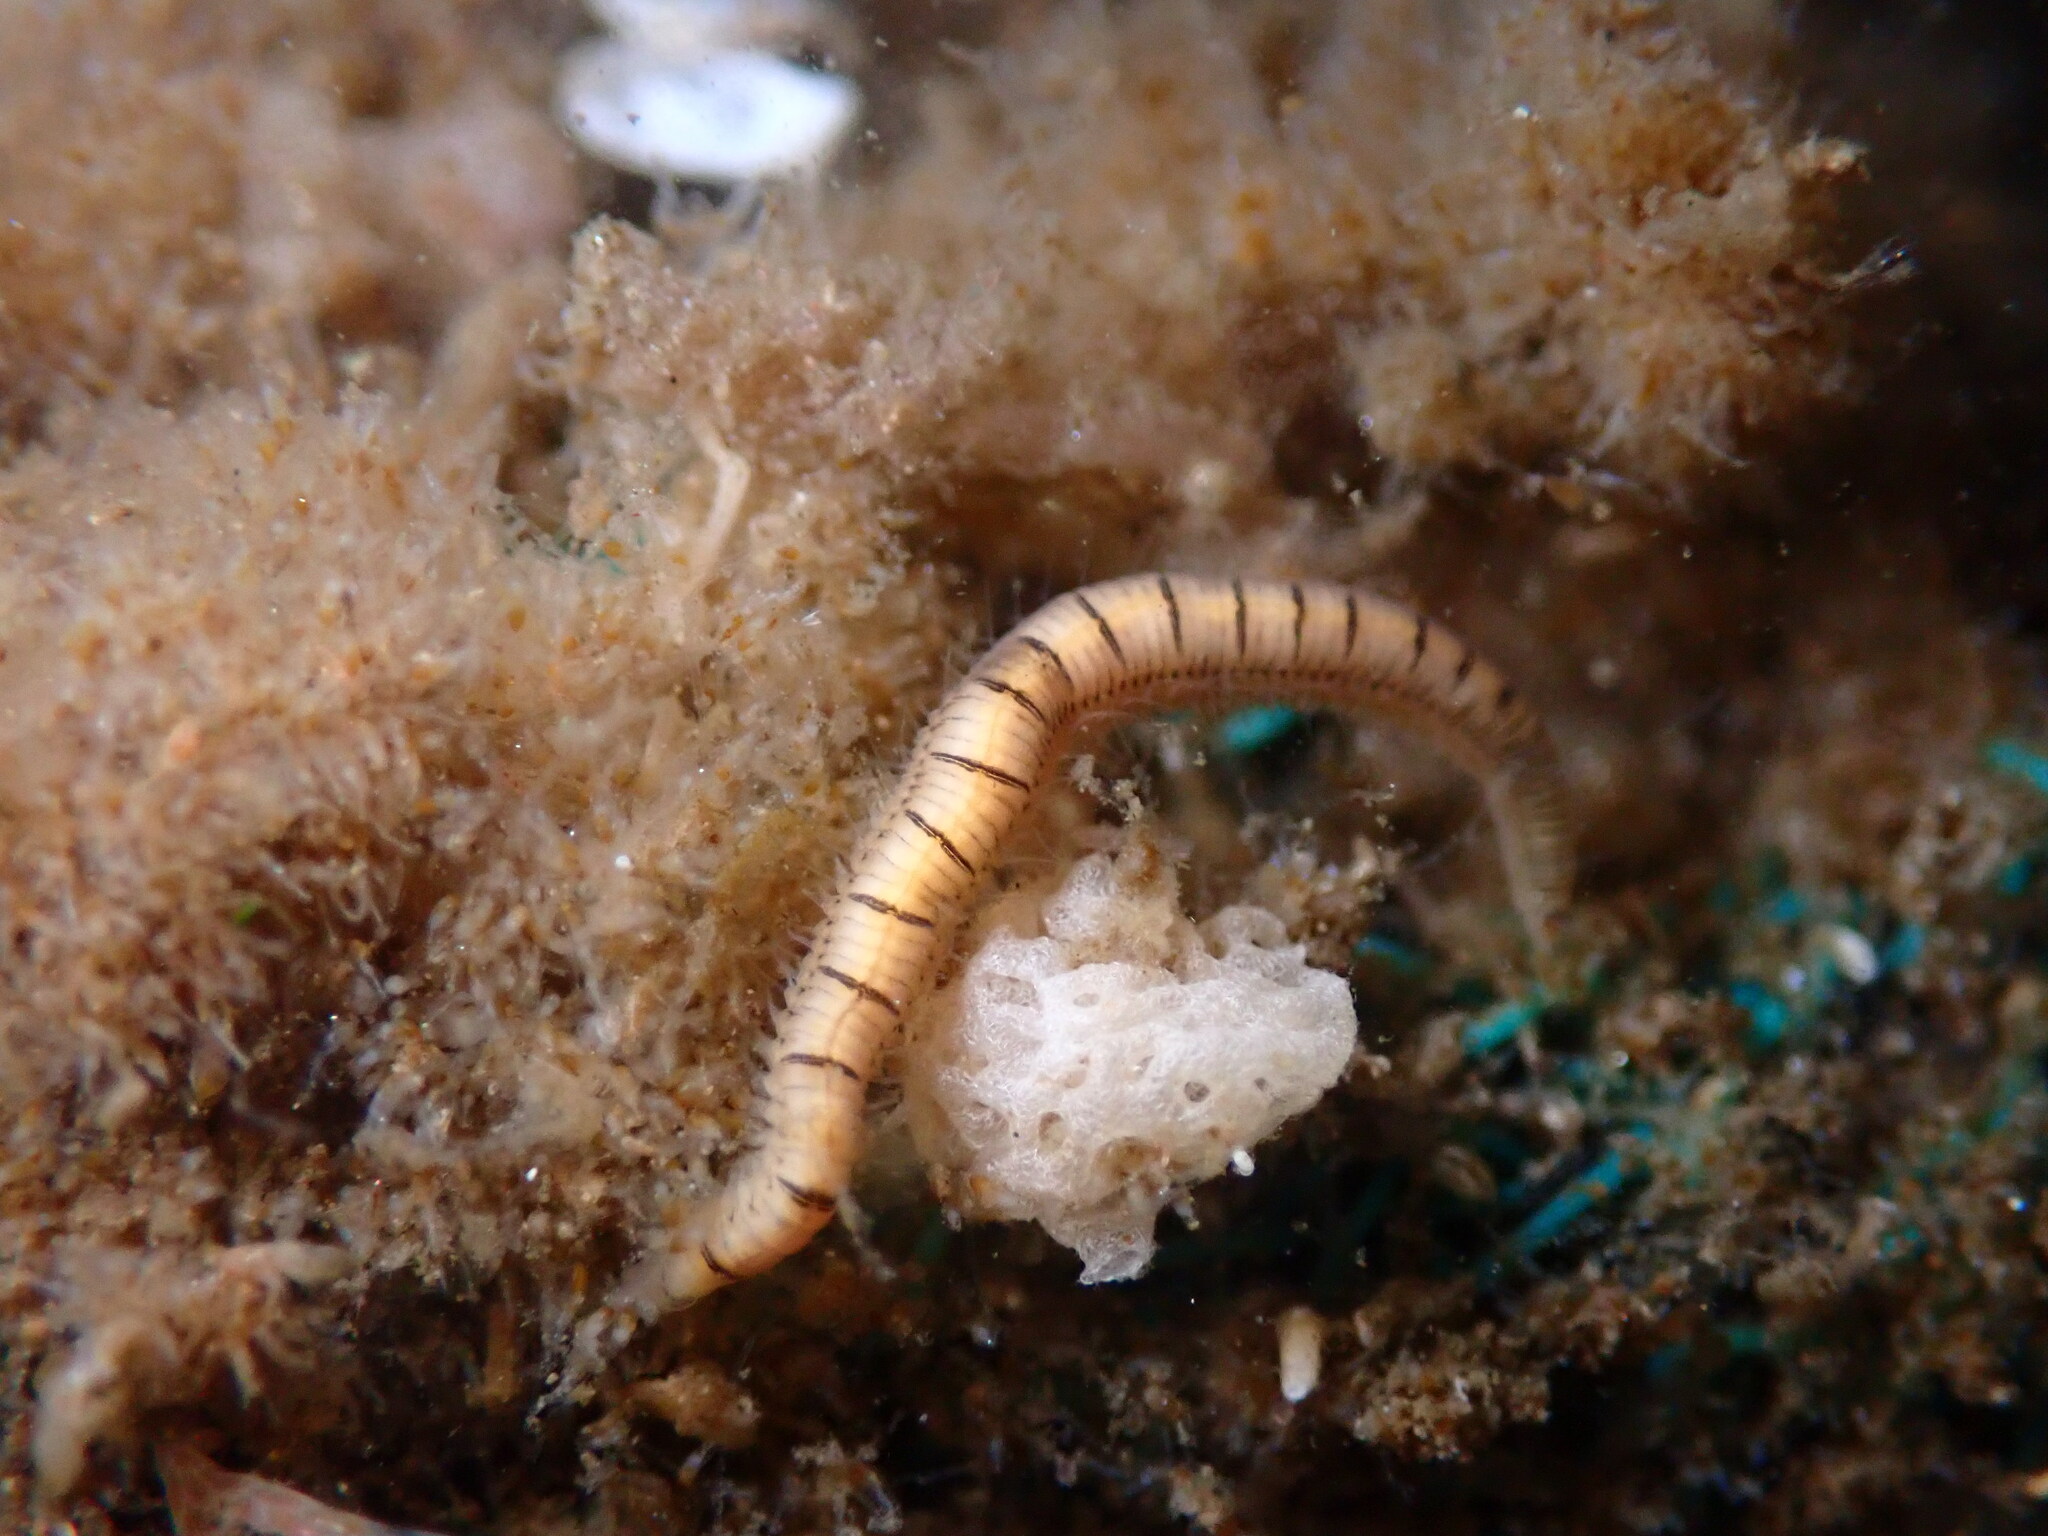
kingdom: Animalia
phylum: Annelida
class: Polychaeta
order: Phyllodocida
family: Syllidae
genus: Odontosyllis
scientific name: Odontosyllis phosphorea
